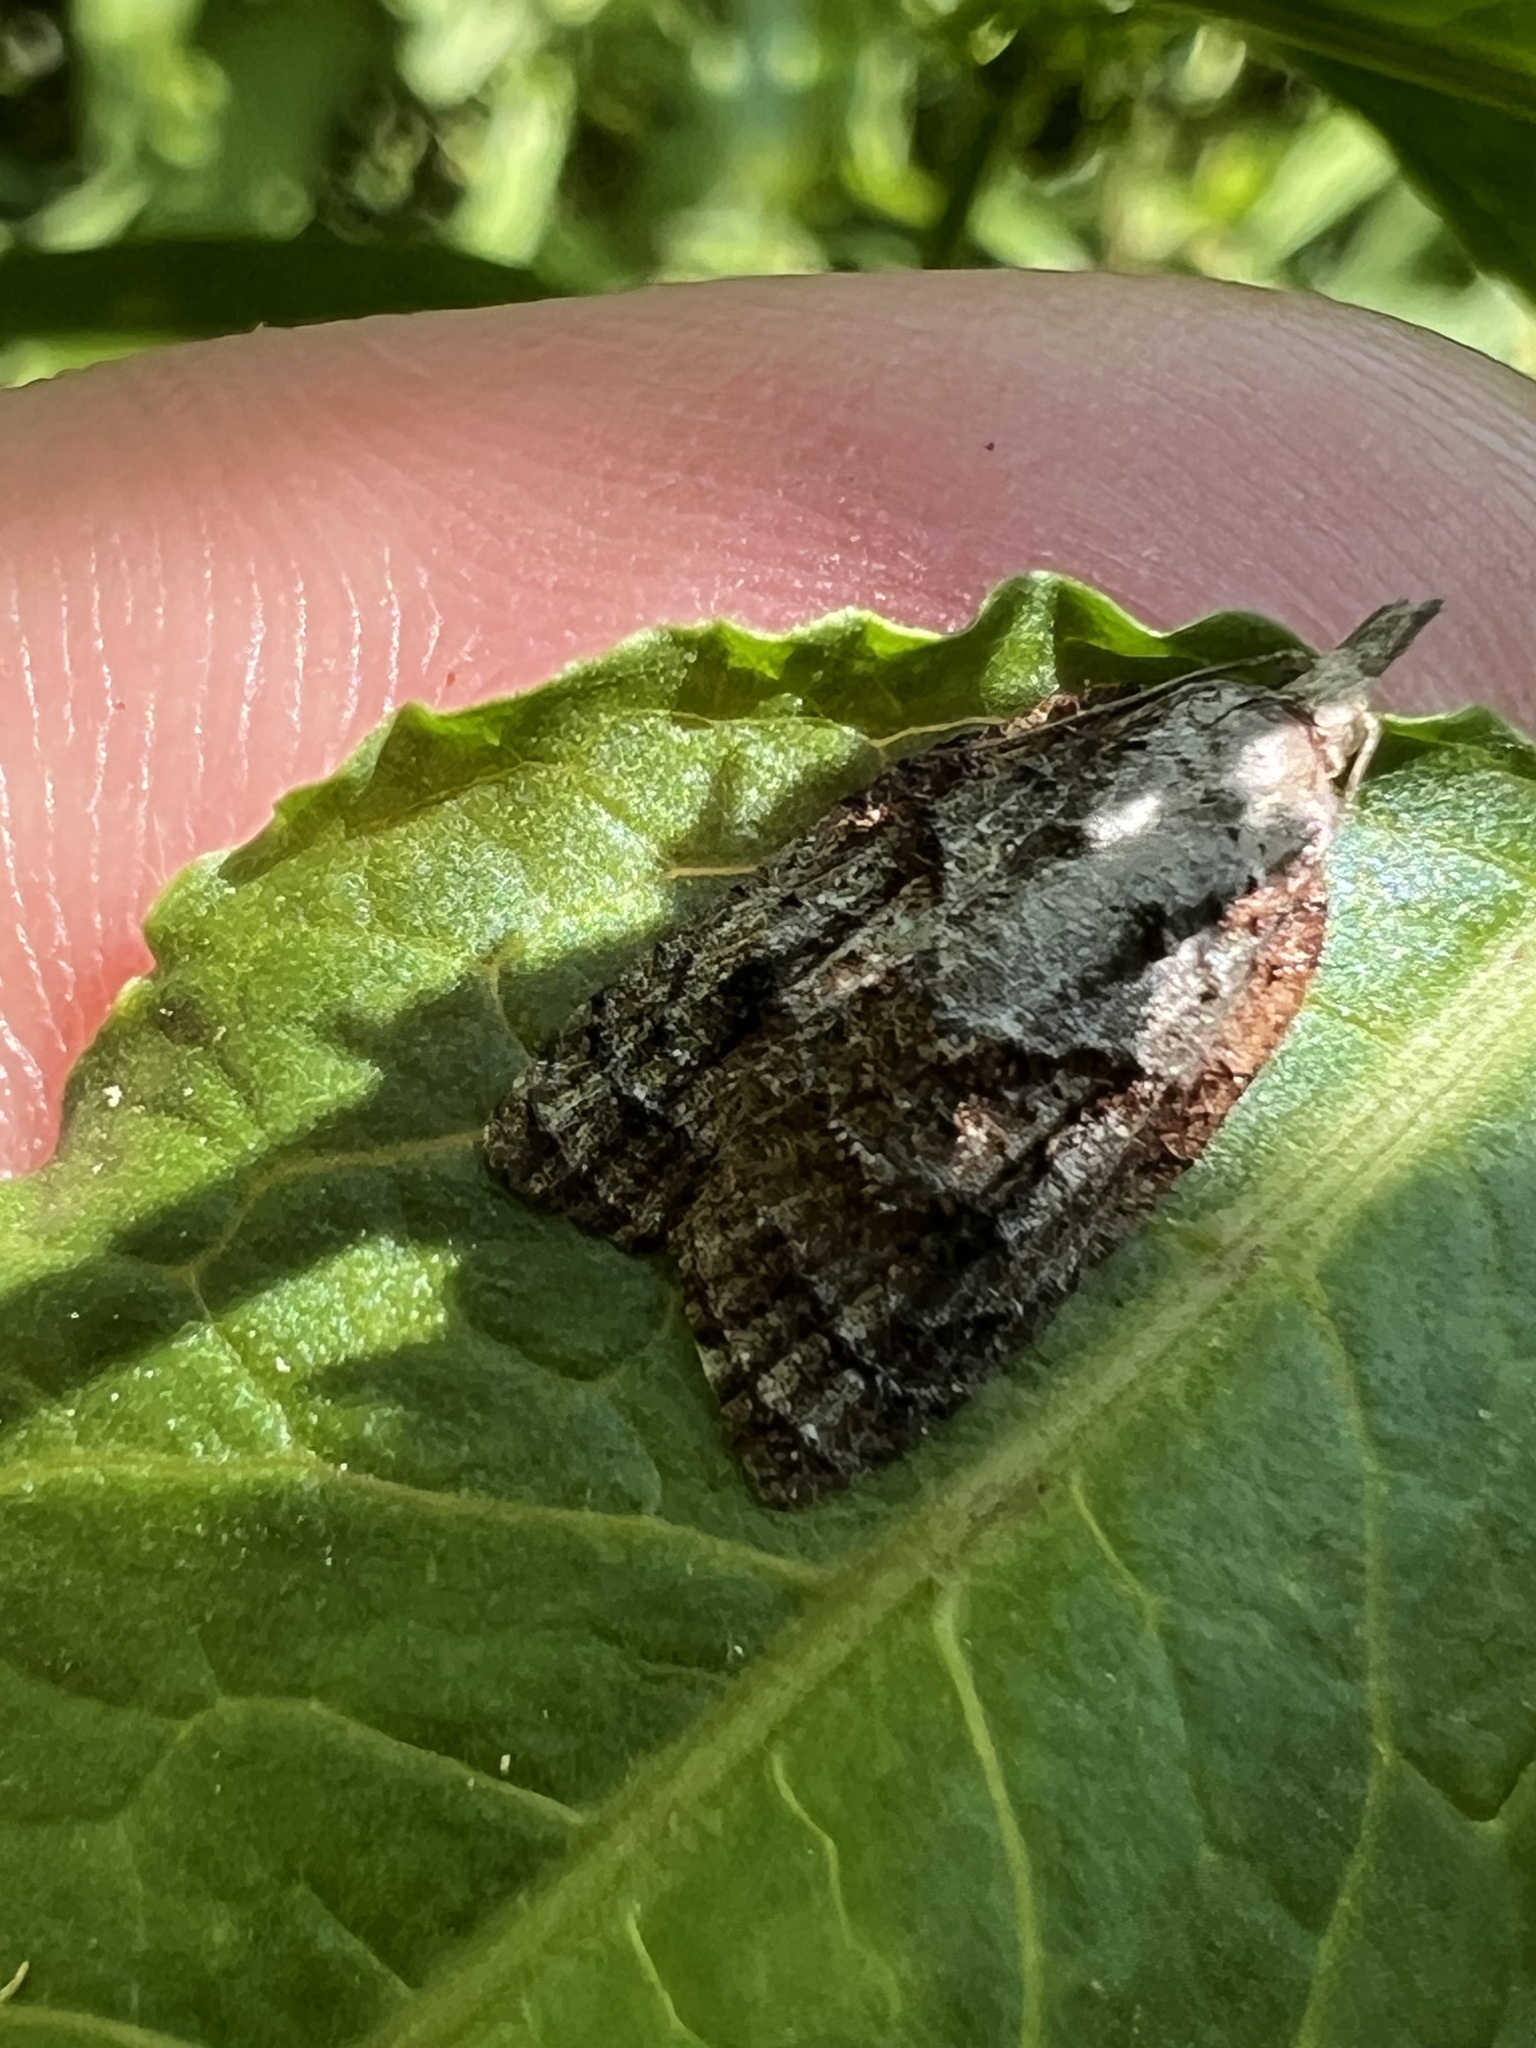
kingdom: Animalia
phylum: Arthropoda
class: Insecta
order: Lepidoptera
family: Tortricidae
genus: Platynota
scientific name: Platynota idaeusalis
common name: Tufted apple bud moth
